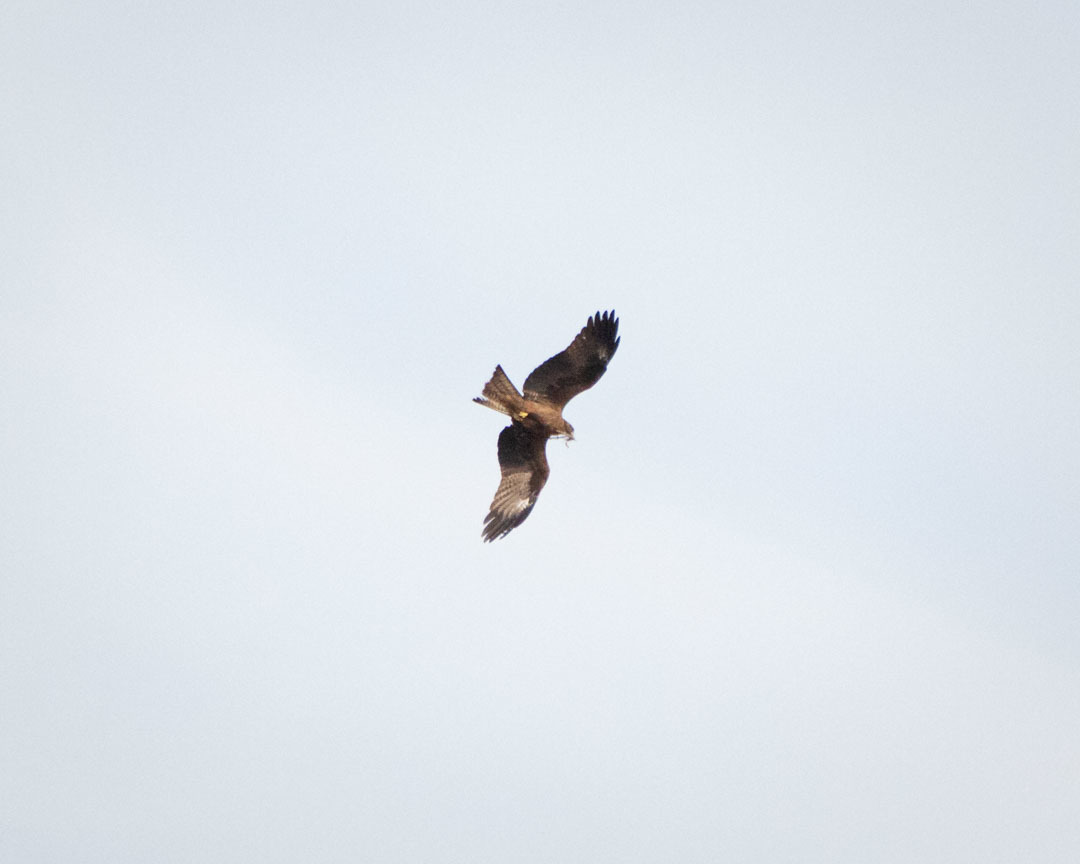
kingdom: Animalia
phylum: Chordata
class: Aves
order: Accipitriformes
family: Accipitridae
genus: Milvus
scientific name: Milvus migrans
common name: Black kite
